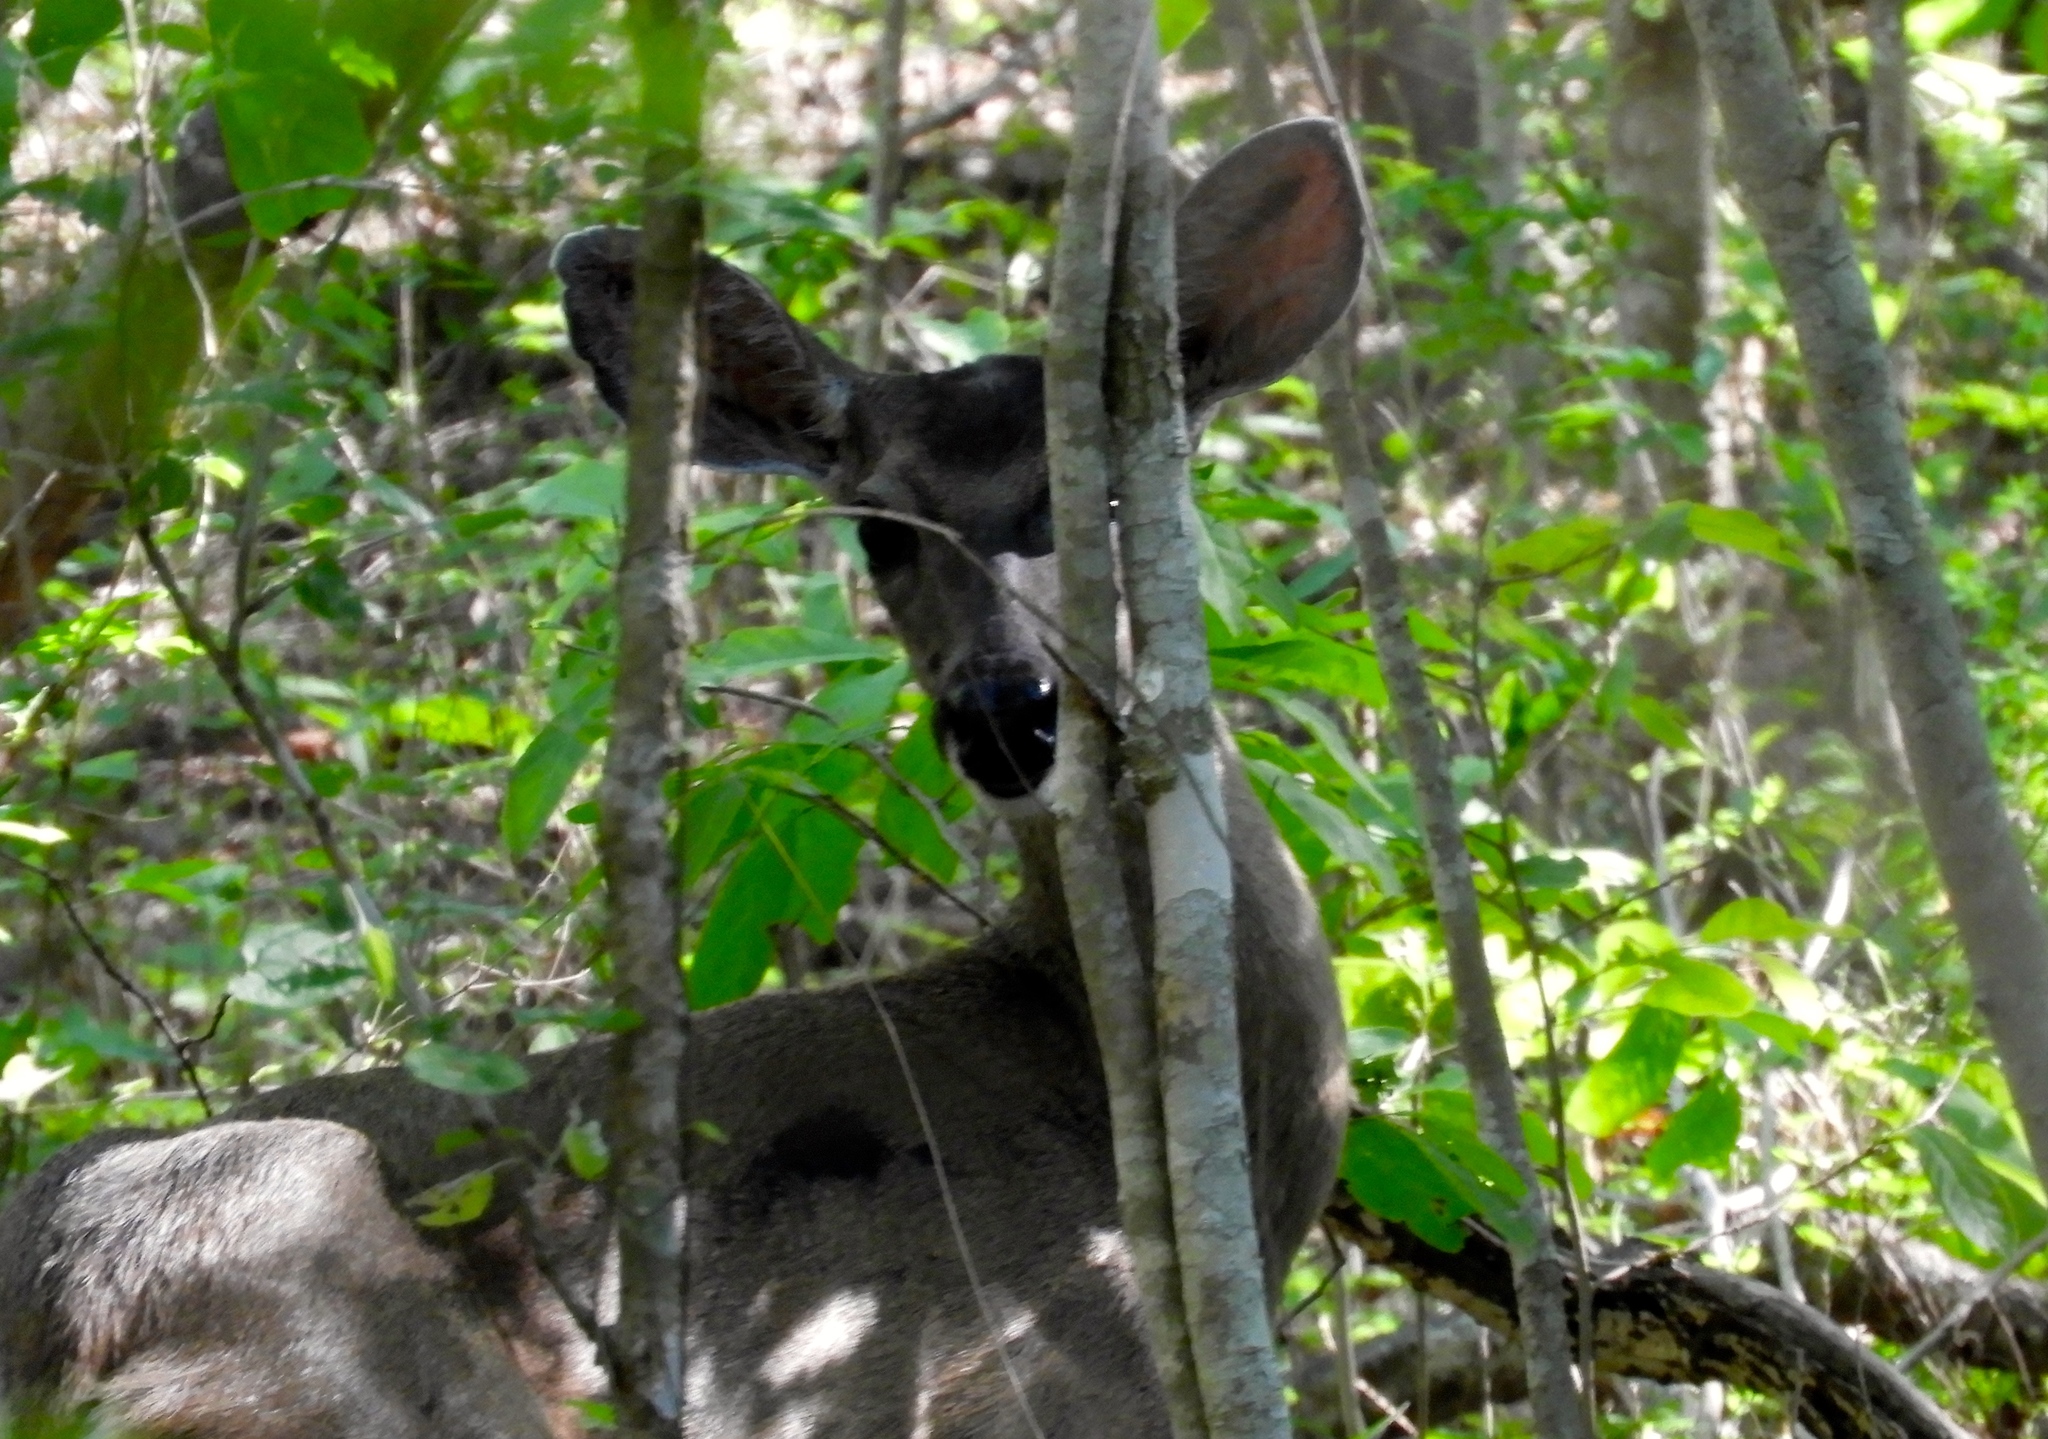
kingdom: Animalia
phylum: Chordata
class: Mammalia
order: Artiodactyla
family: Cervidae
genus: Odocoileus
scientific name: Odocoileus virginianus
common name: White-tailed deer
